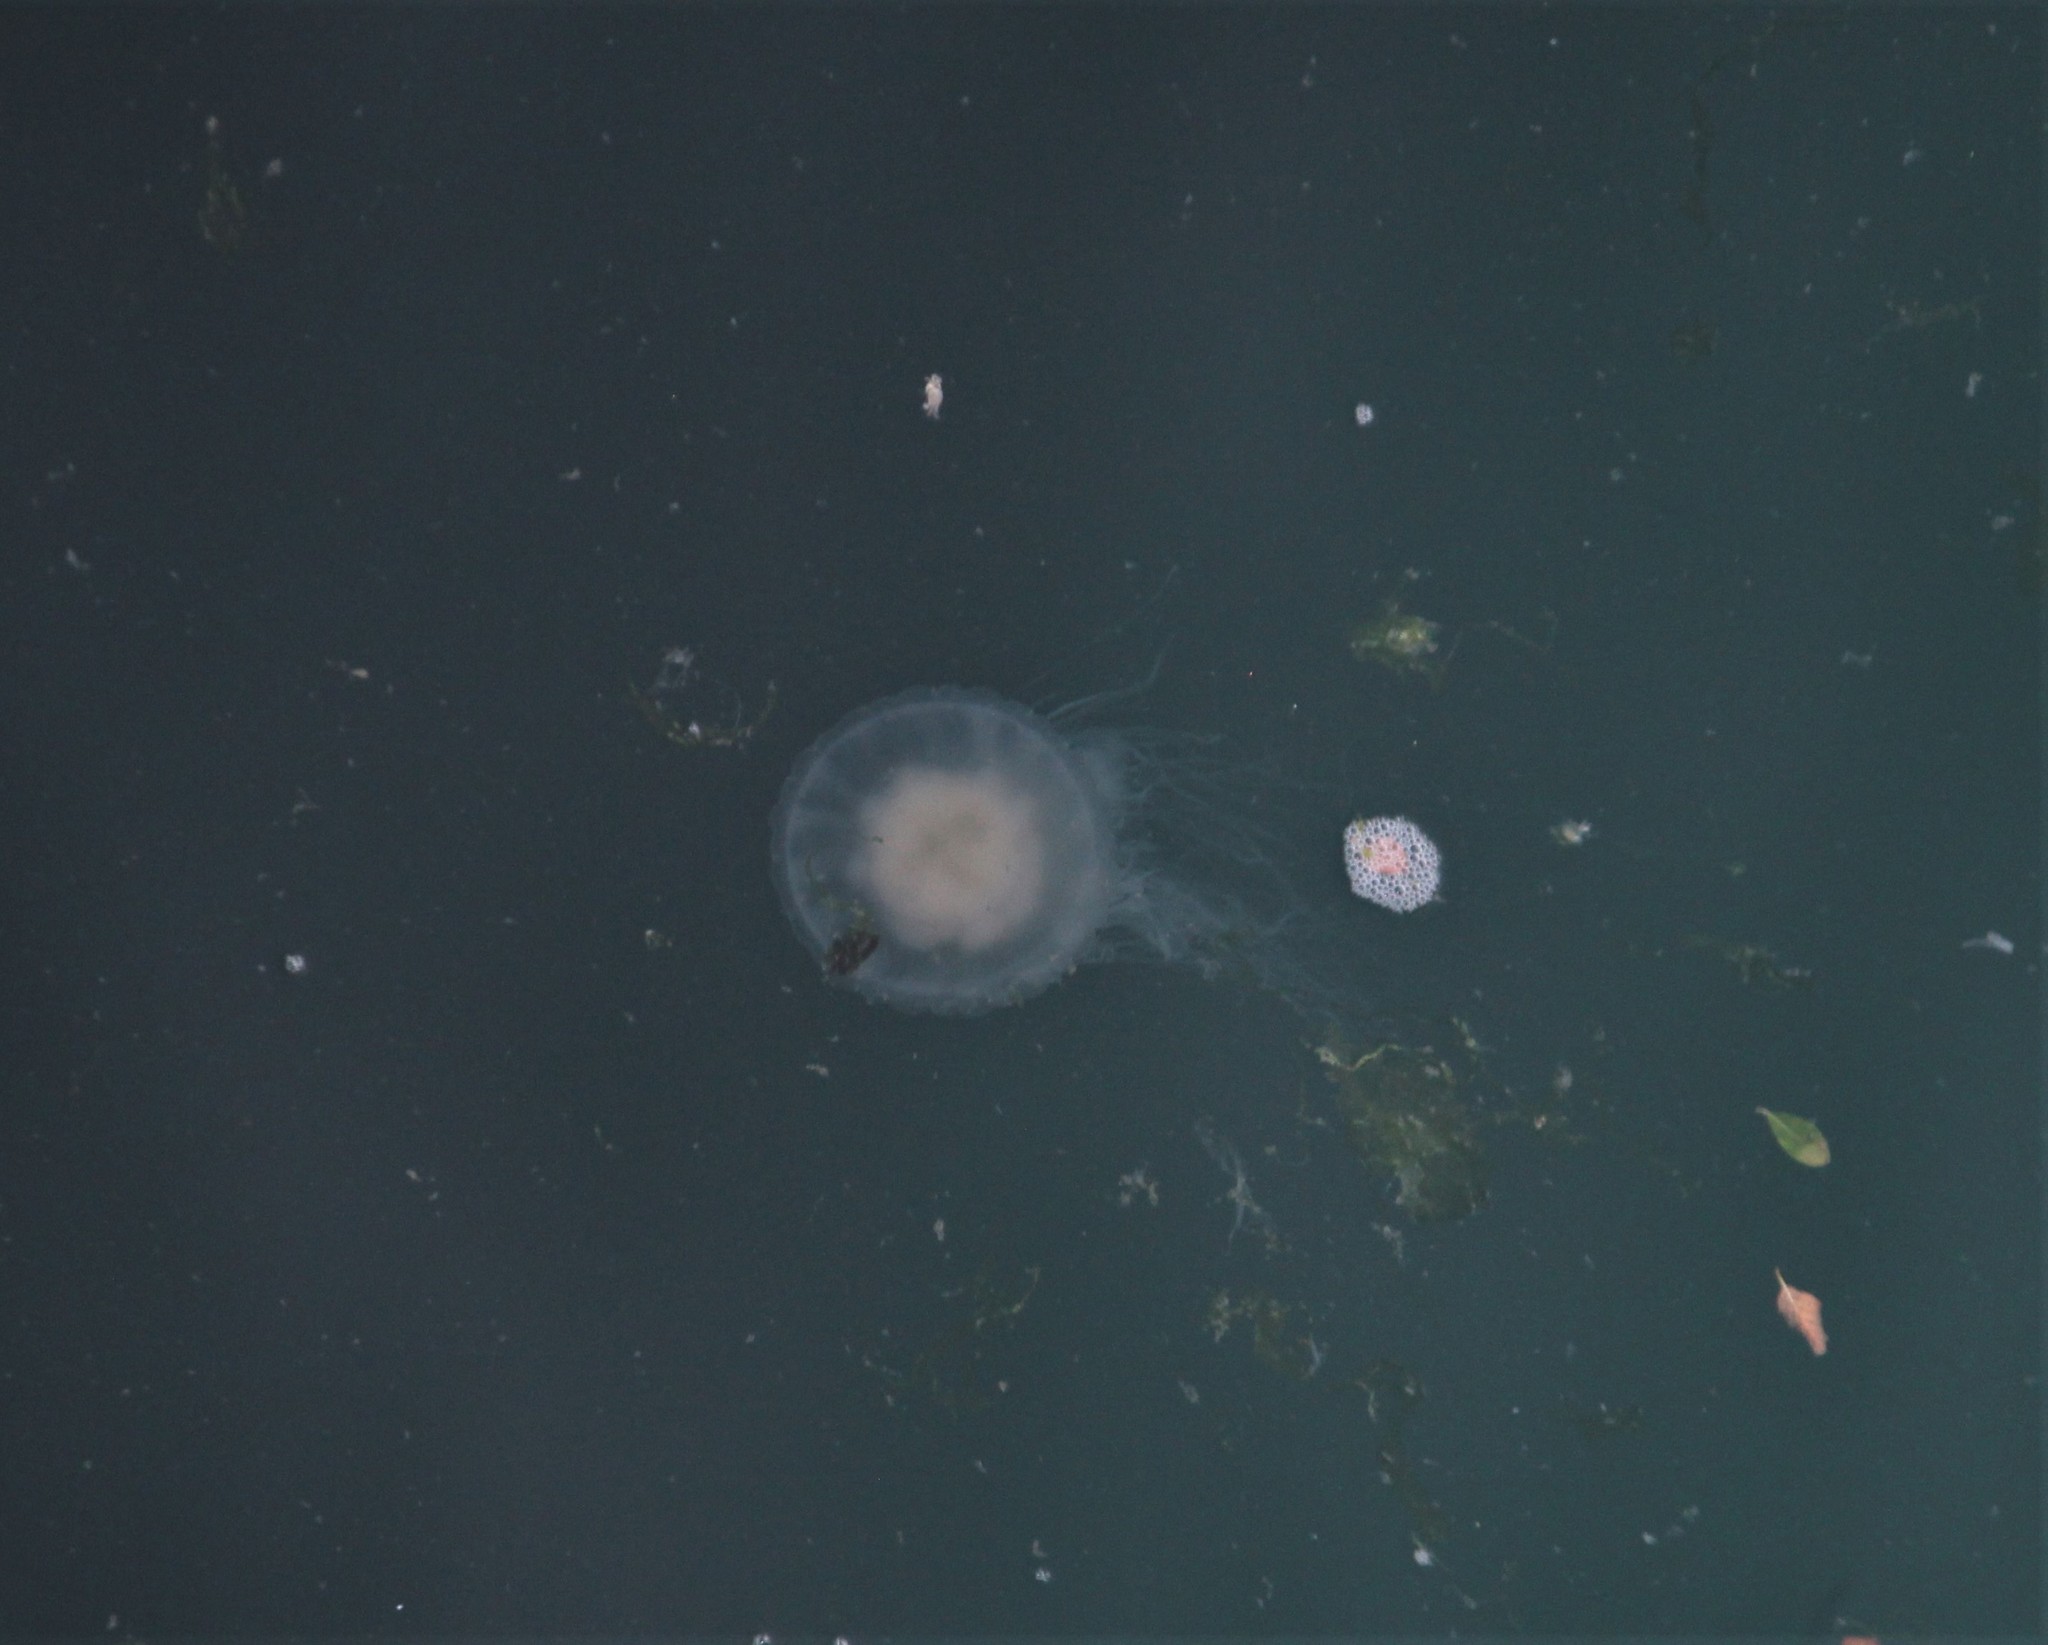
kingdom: Animalia
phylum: Cnidaria
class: Scyphozoa
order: Semaeostomeae
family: Phacellophoridae
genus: Phacellophora
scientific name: Phacellophora camtschatica
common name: Fried-egg jellyfish
